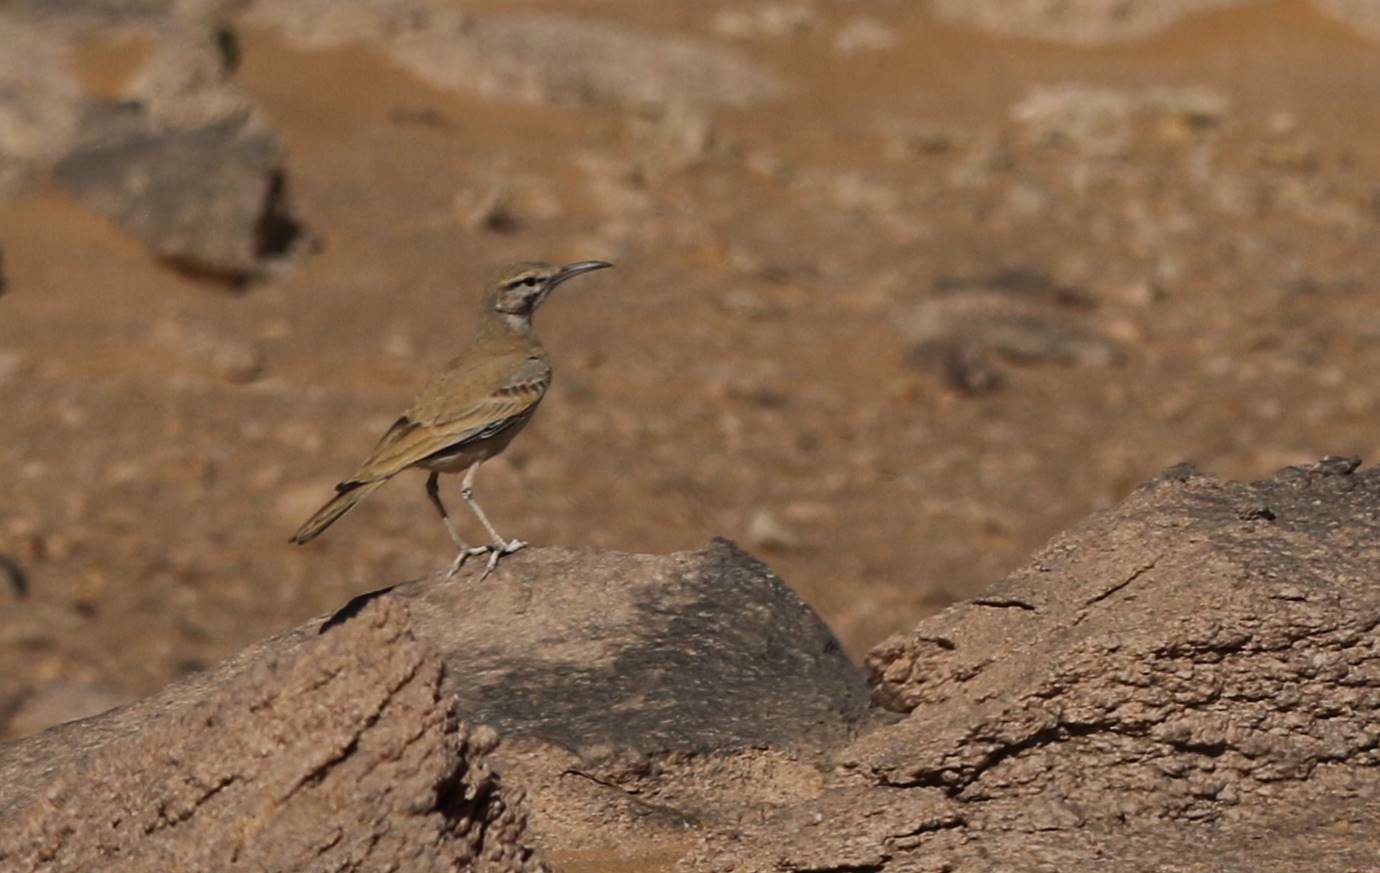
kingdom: Animalia
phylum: Chordata
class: Aves
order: Passeriformes
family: Alaudidae
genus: Alaemon
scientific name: Alaemon alaudipes
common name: Greater hoopoe-lark
